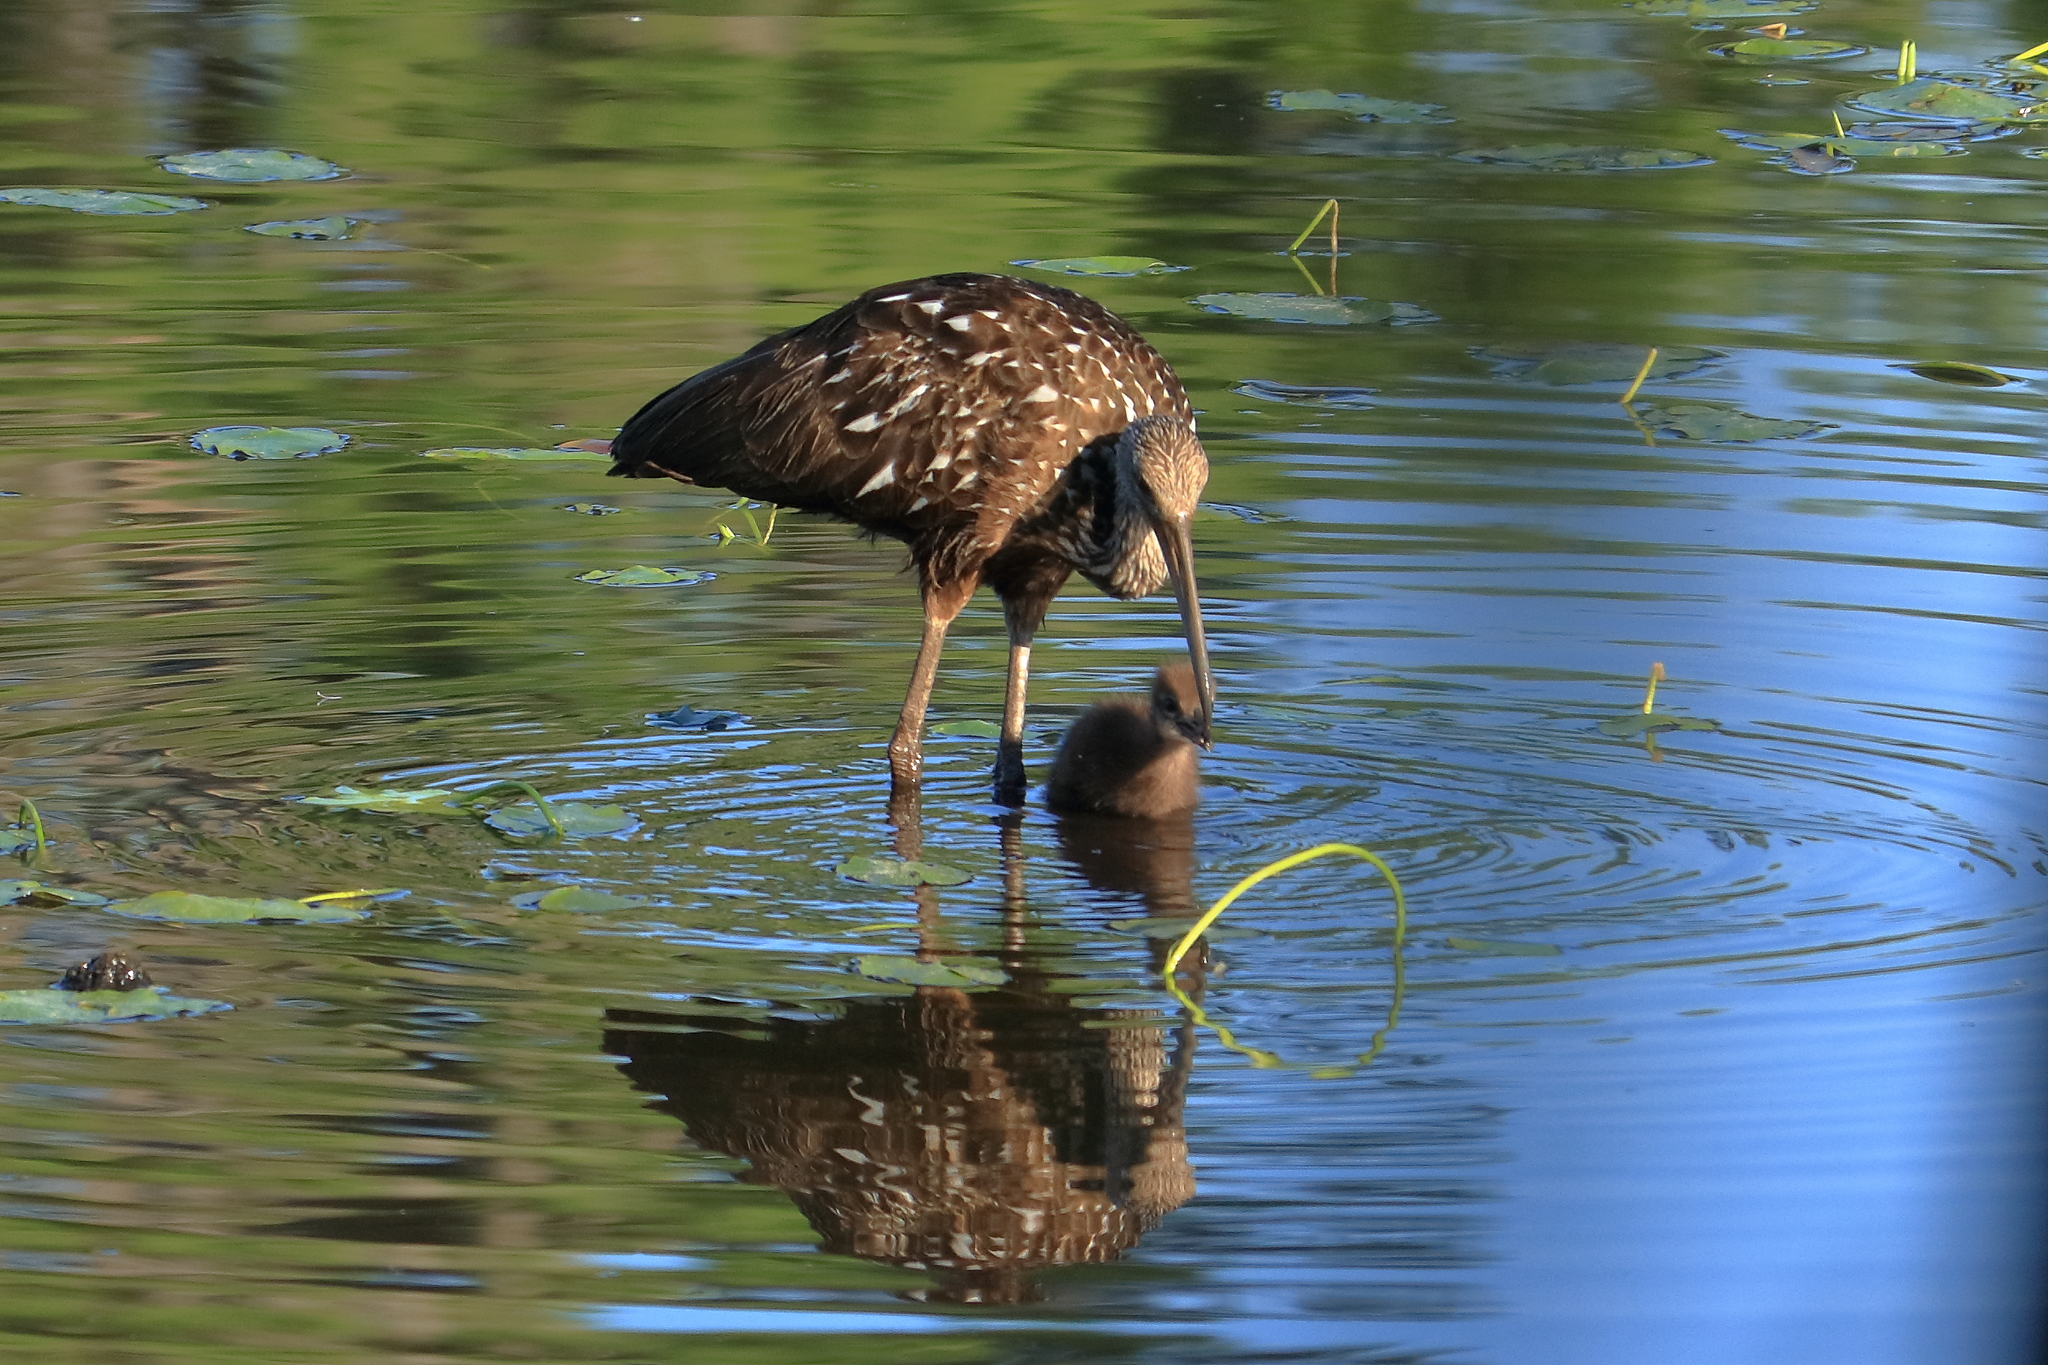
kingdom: Animalia
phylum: Chordata
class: Aves
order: Gruiformes
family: Aramidae
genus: Aramus
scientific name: Aramus guarauna
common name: Limpkin
